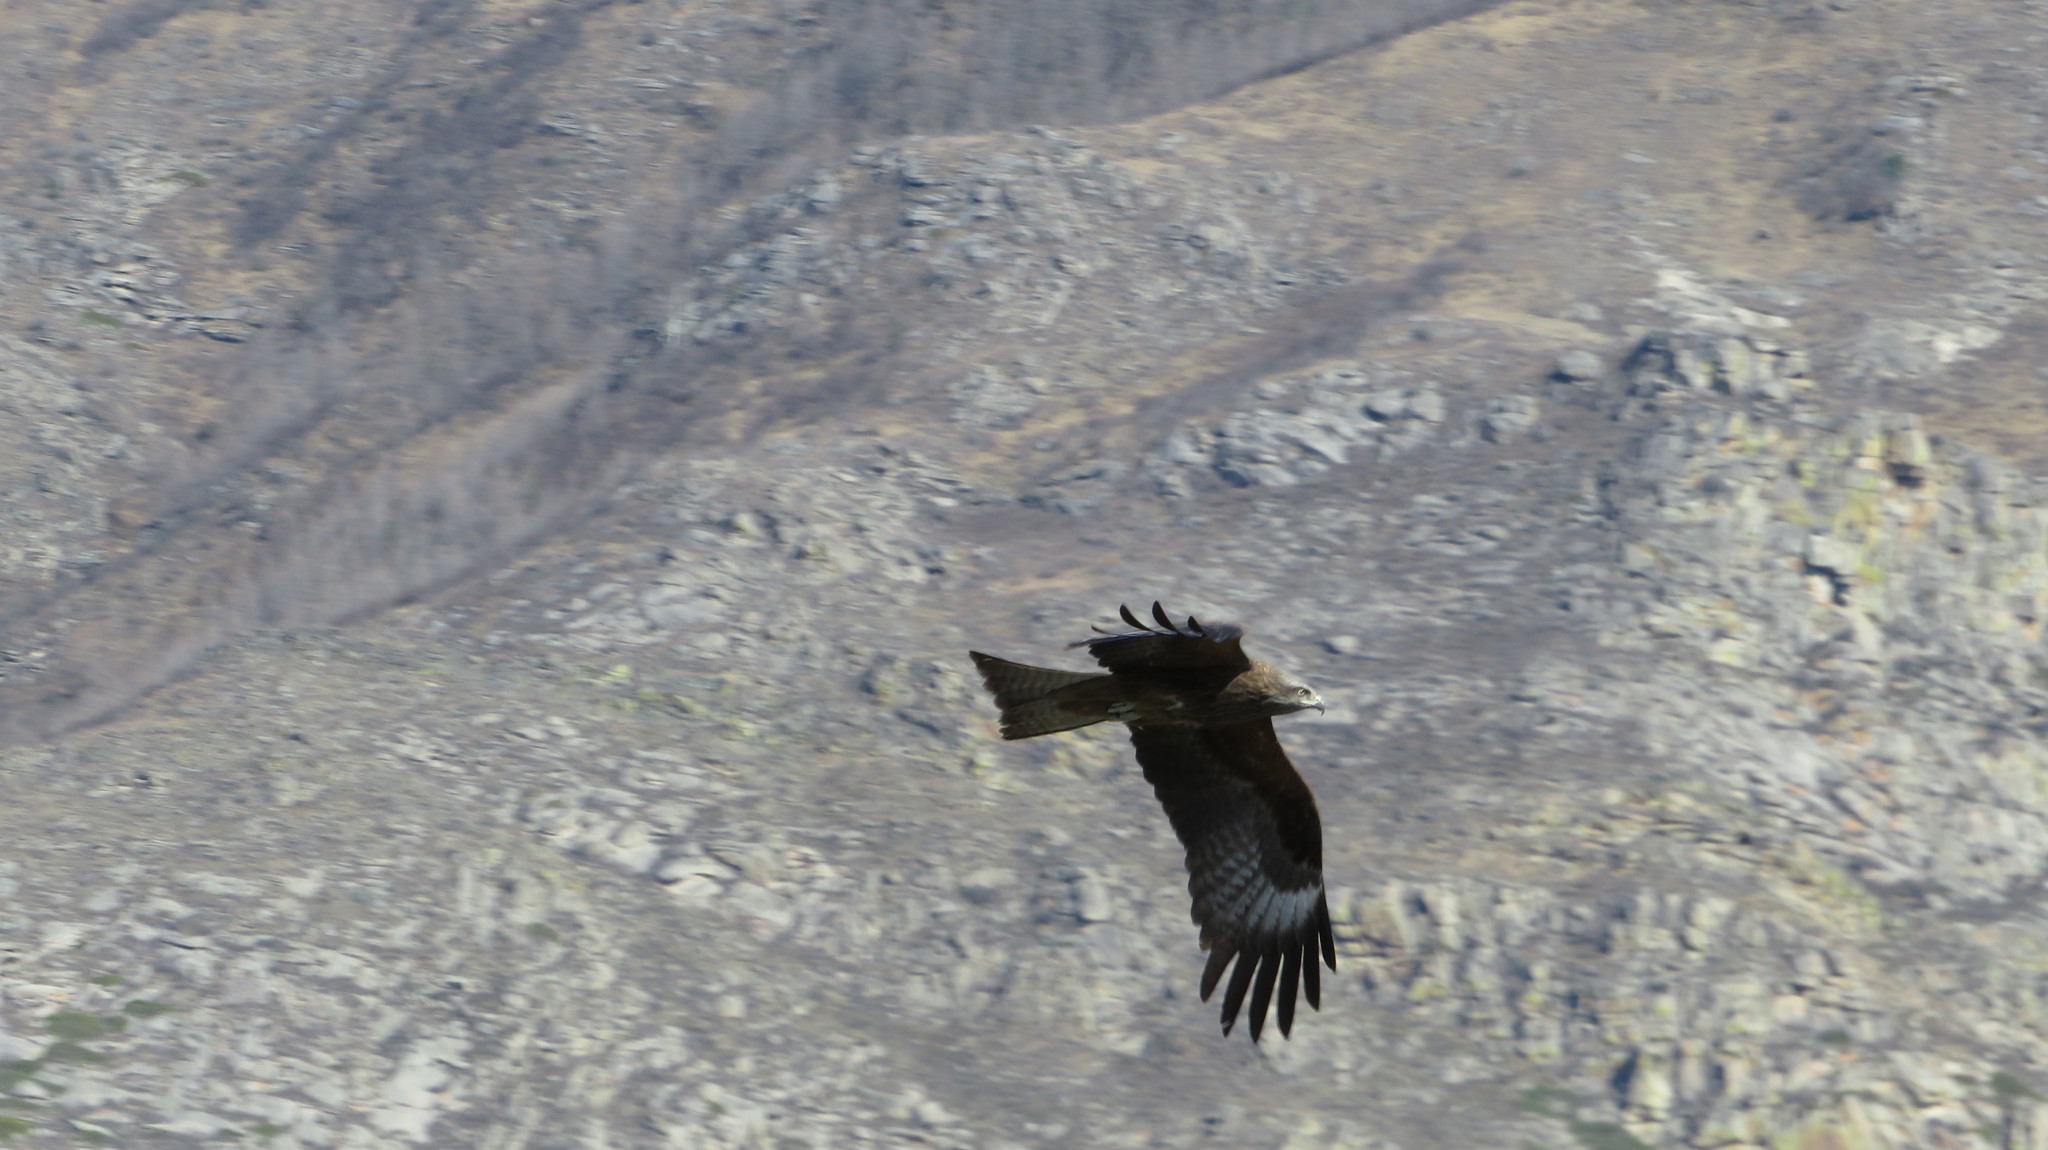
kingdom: Animalia
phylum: Chordata
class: Aves
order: Accipitriformes
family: Accipitridae
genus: Milvus
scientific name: Milvus migrans
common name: Black kite
